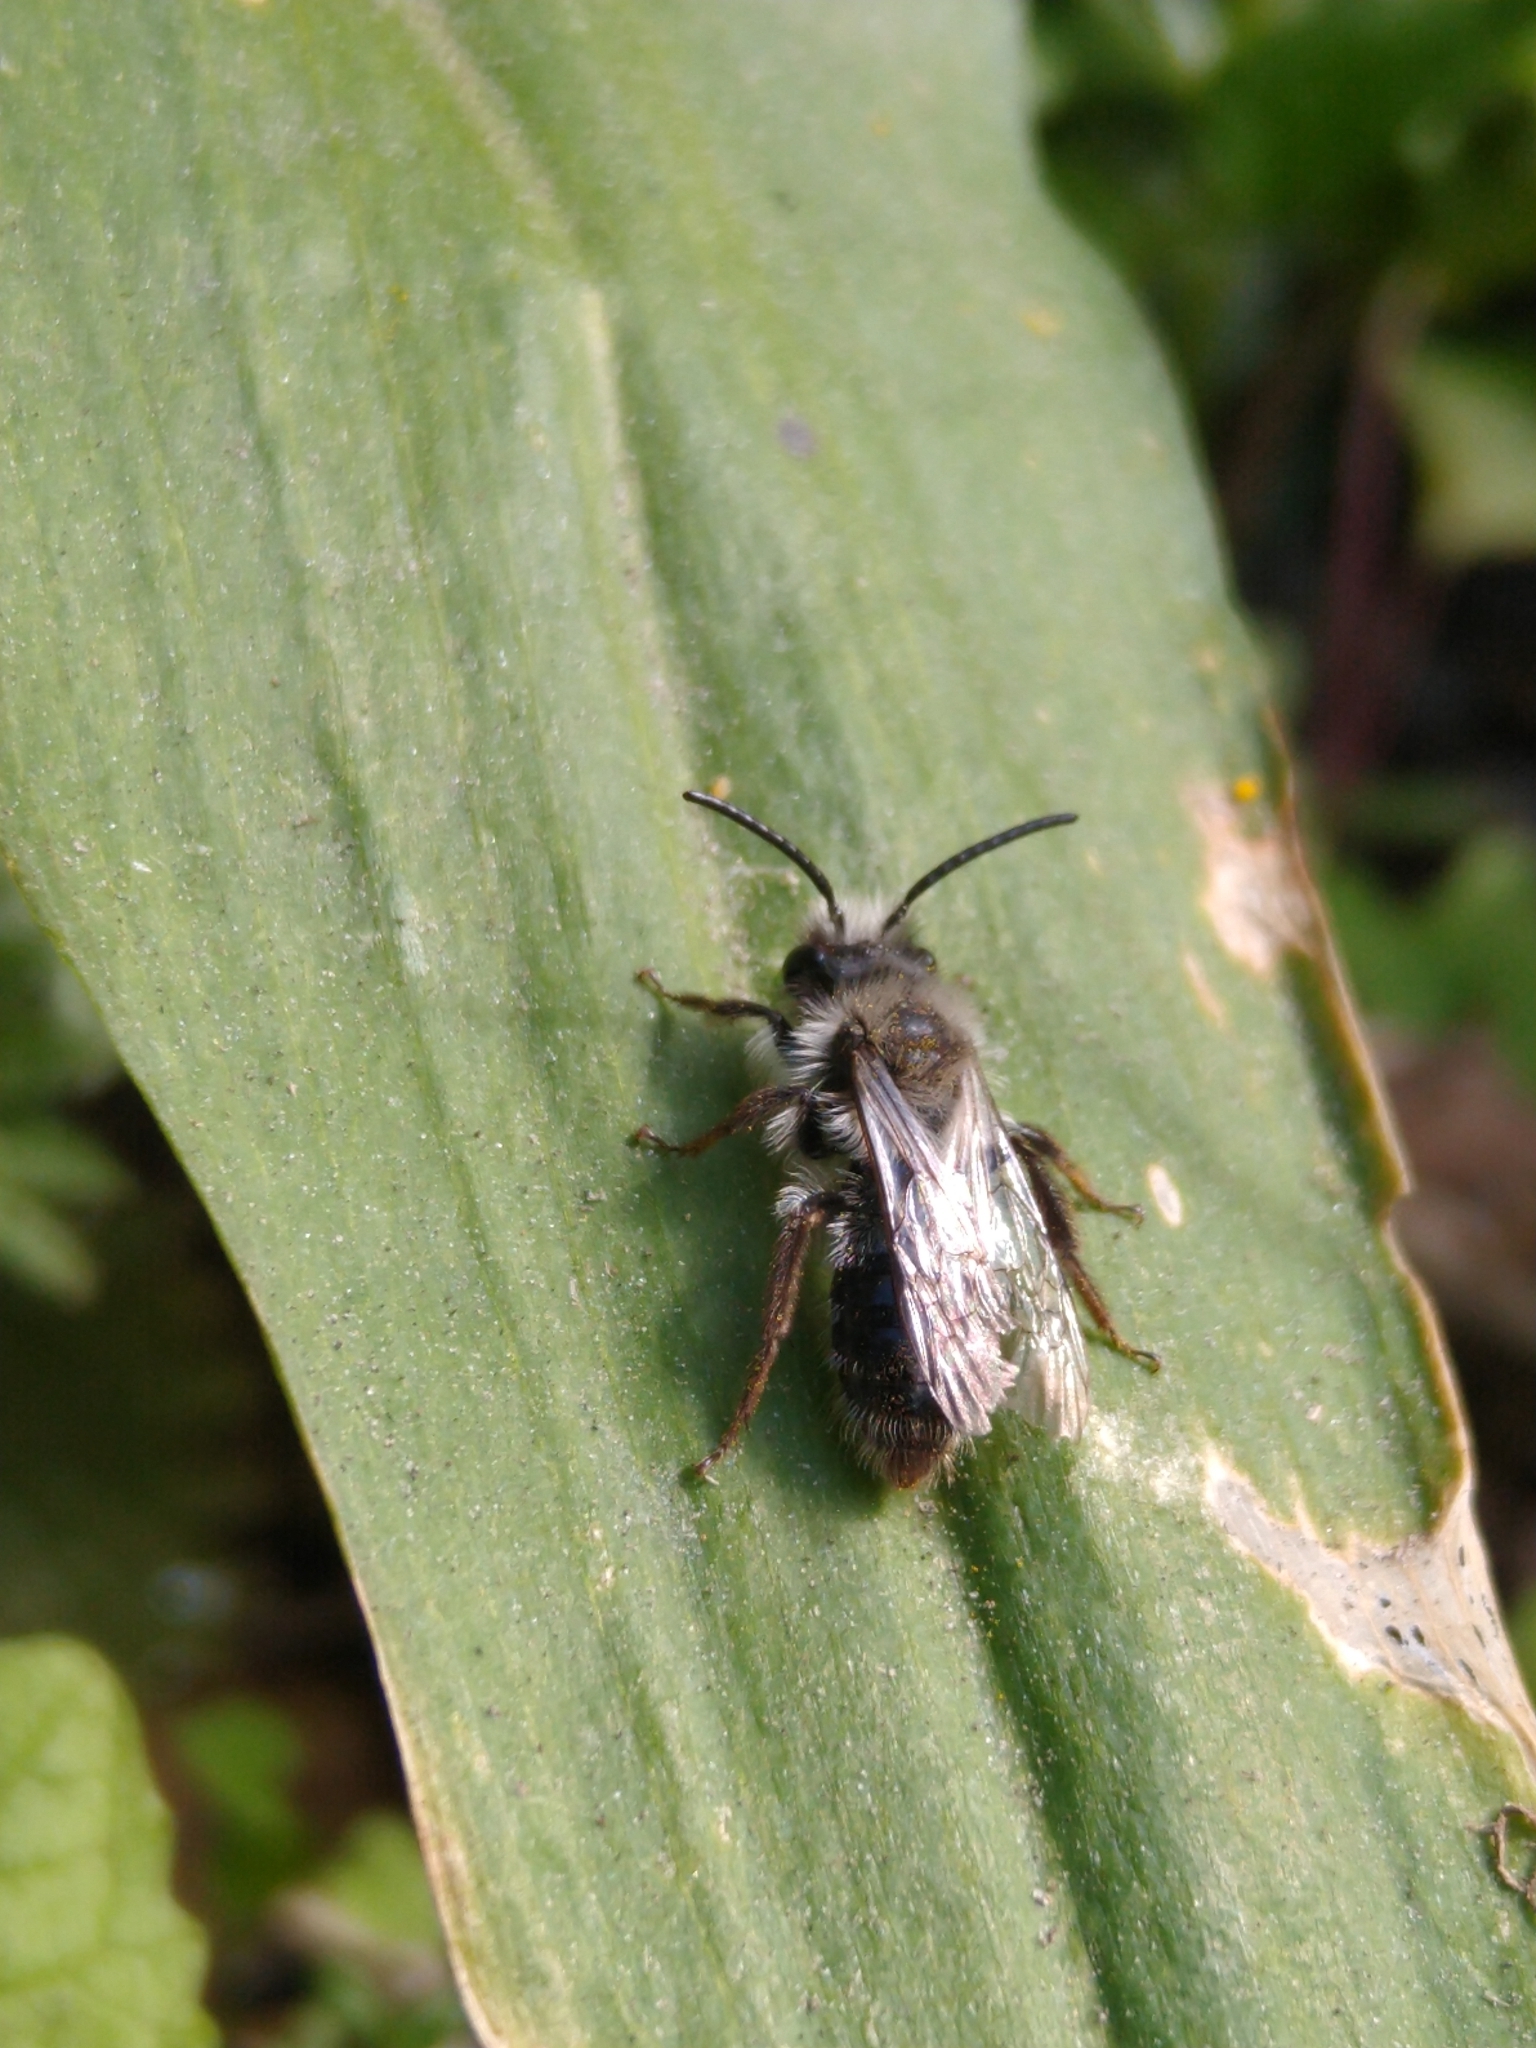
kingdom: Animalia
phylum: Arthropoda
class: Insecta
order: Hymenoptera
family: Andrenidae
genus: Andrena
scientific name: Andrena cineraria
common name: Ashy mining bee
